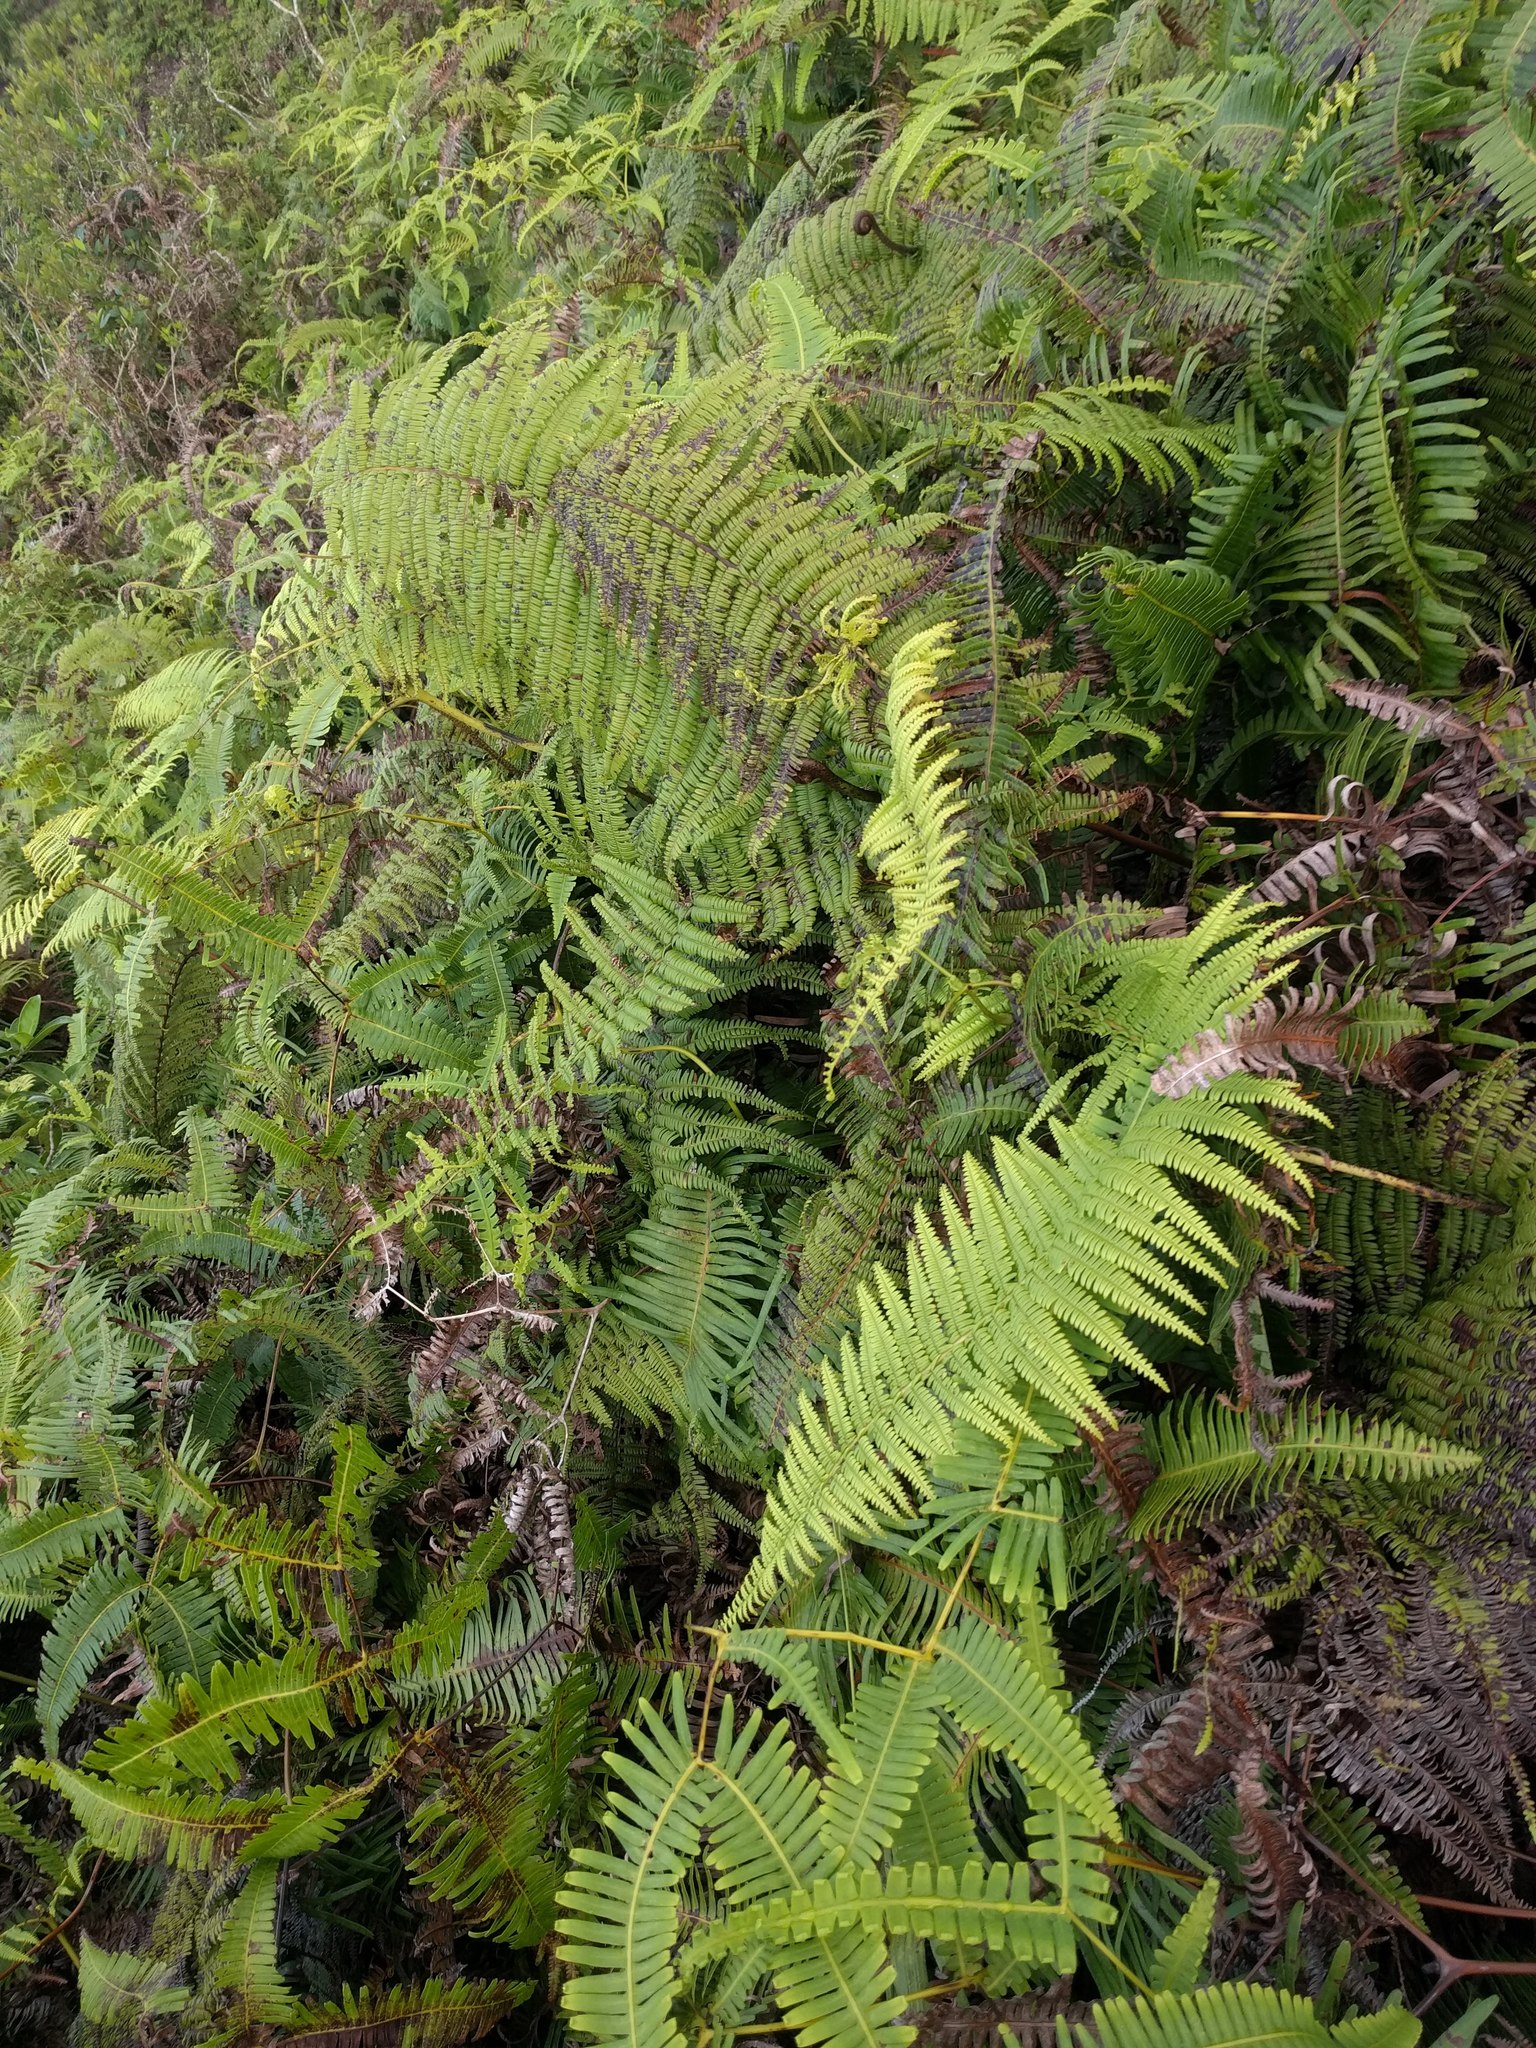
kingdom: Plantae
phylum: Tracheophyta
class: Polypodiopsida
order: Gleicheniales
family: Gleicheniaceae
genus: Diplopterygium
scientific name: Diplopterygium pinnatum
